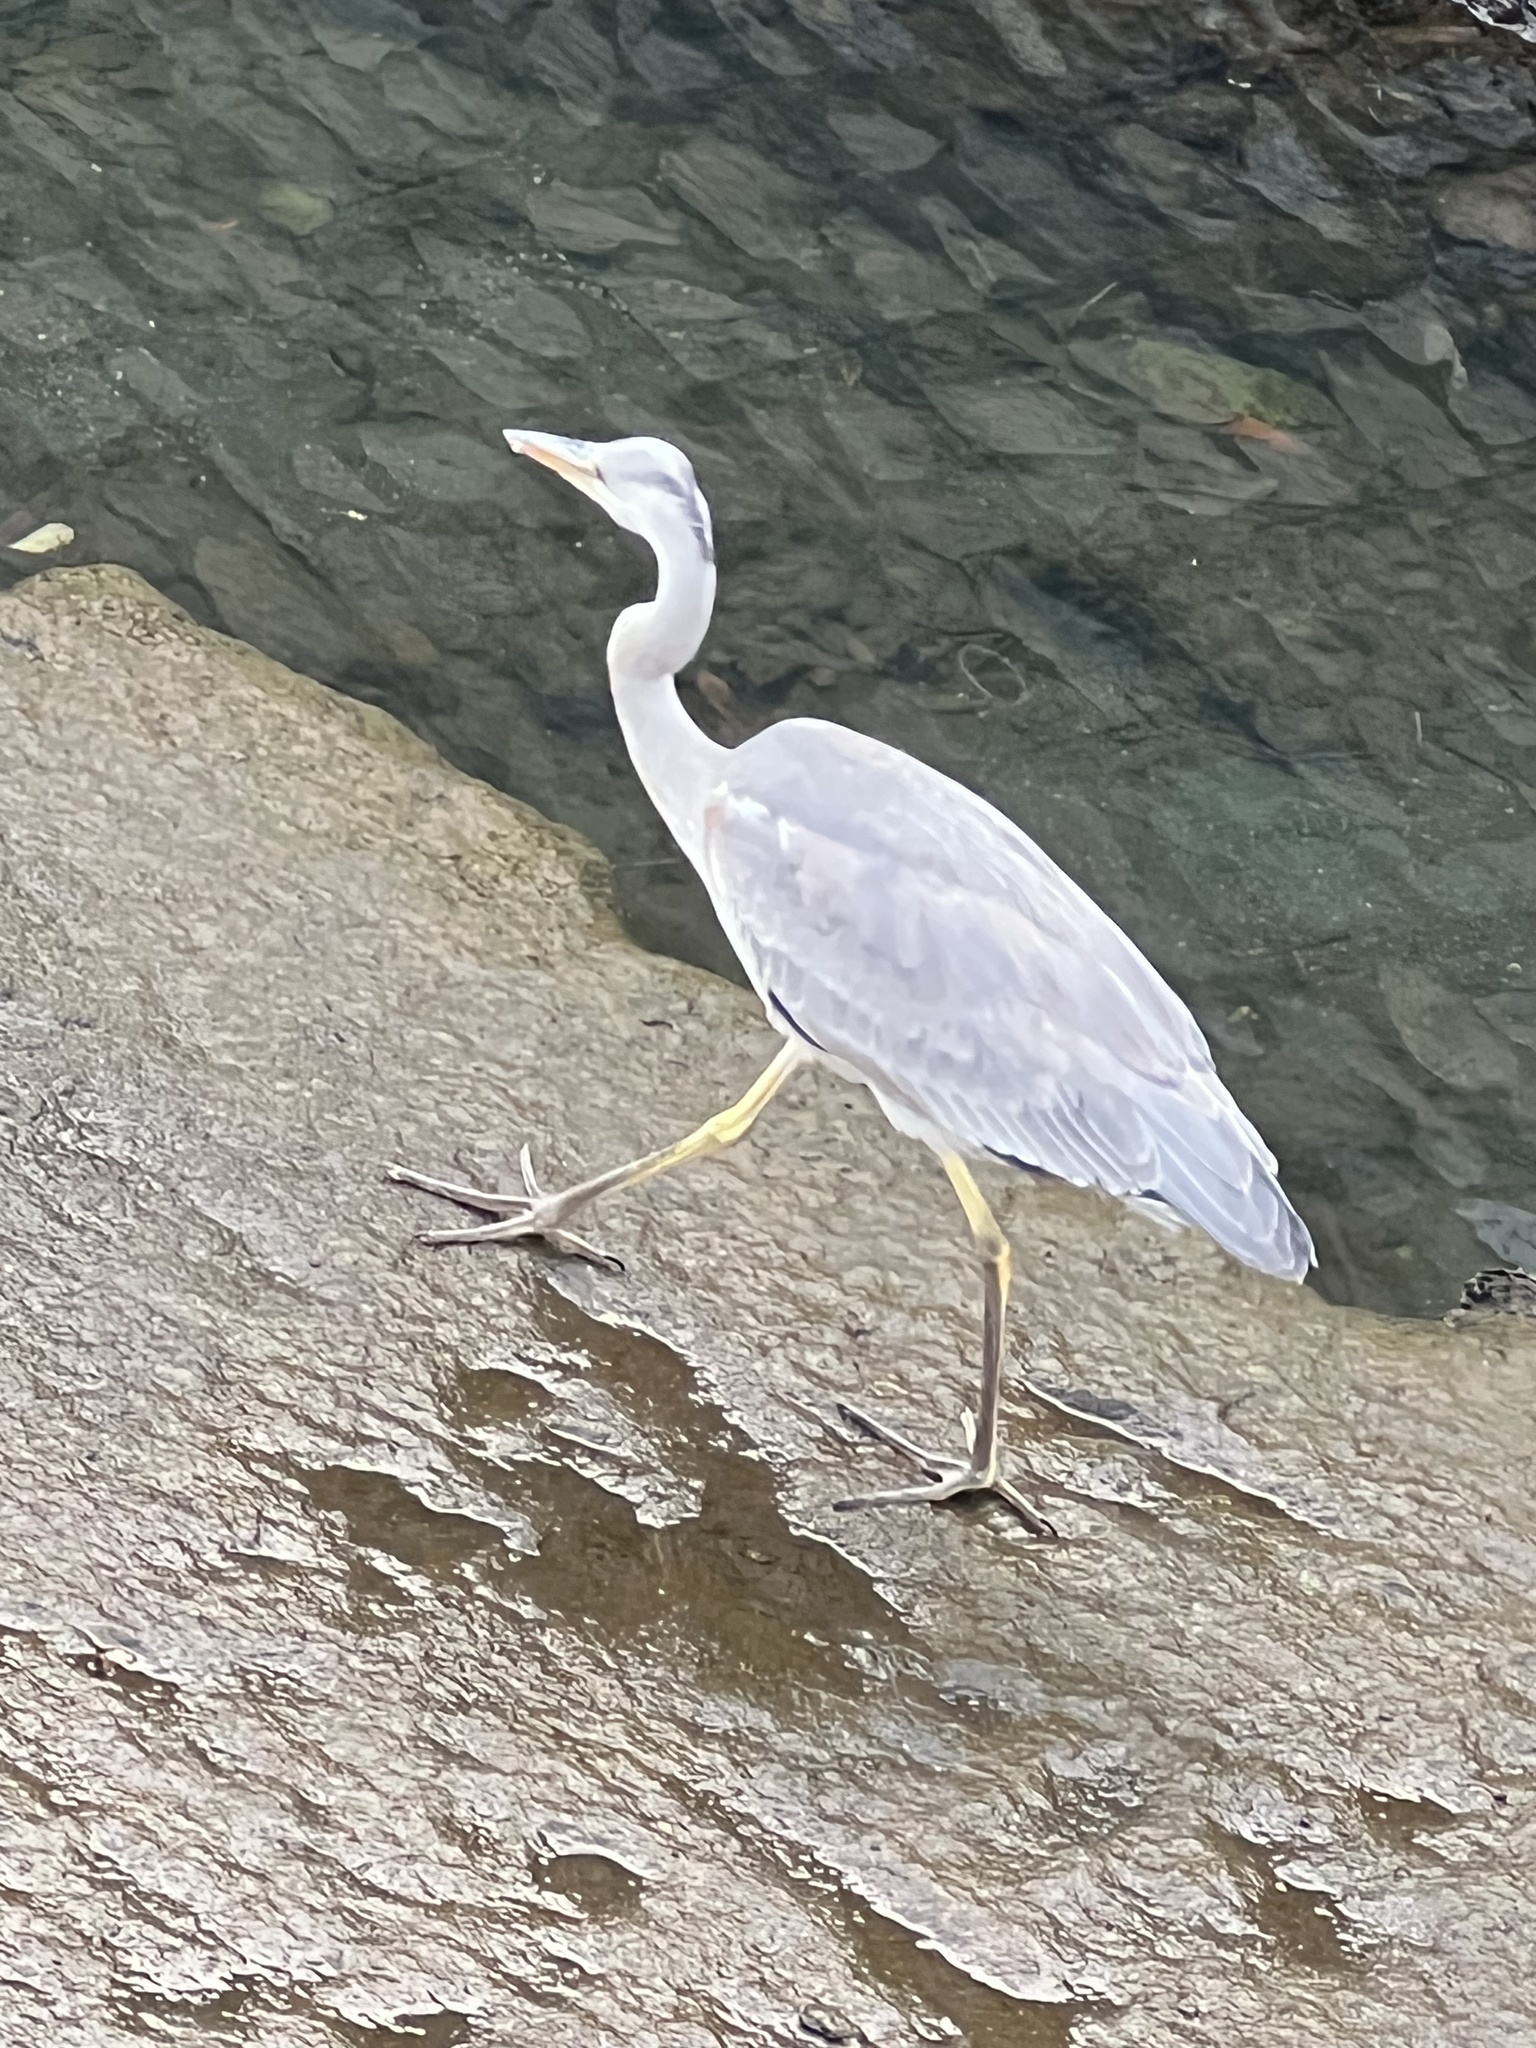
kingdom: Animalia
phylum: Chordata
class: Aves
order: Pelecaniformes
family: Ardeidae
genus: Ardea
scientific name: Ardea cinerea
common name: Grey heron
